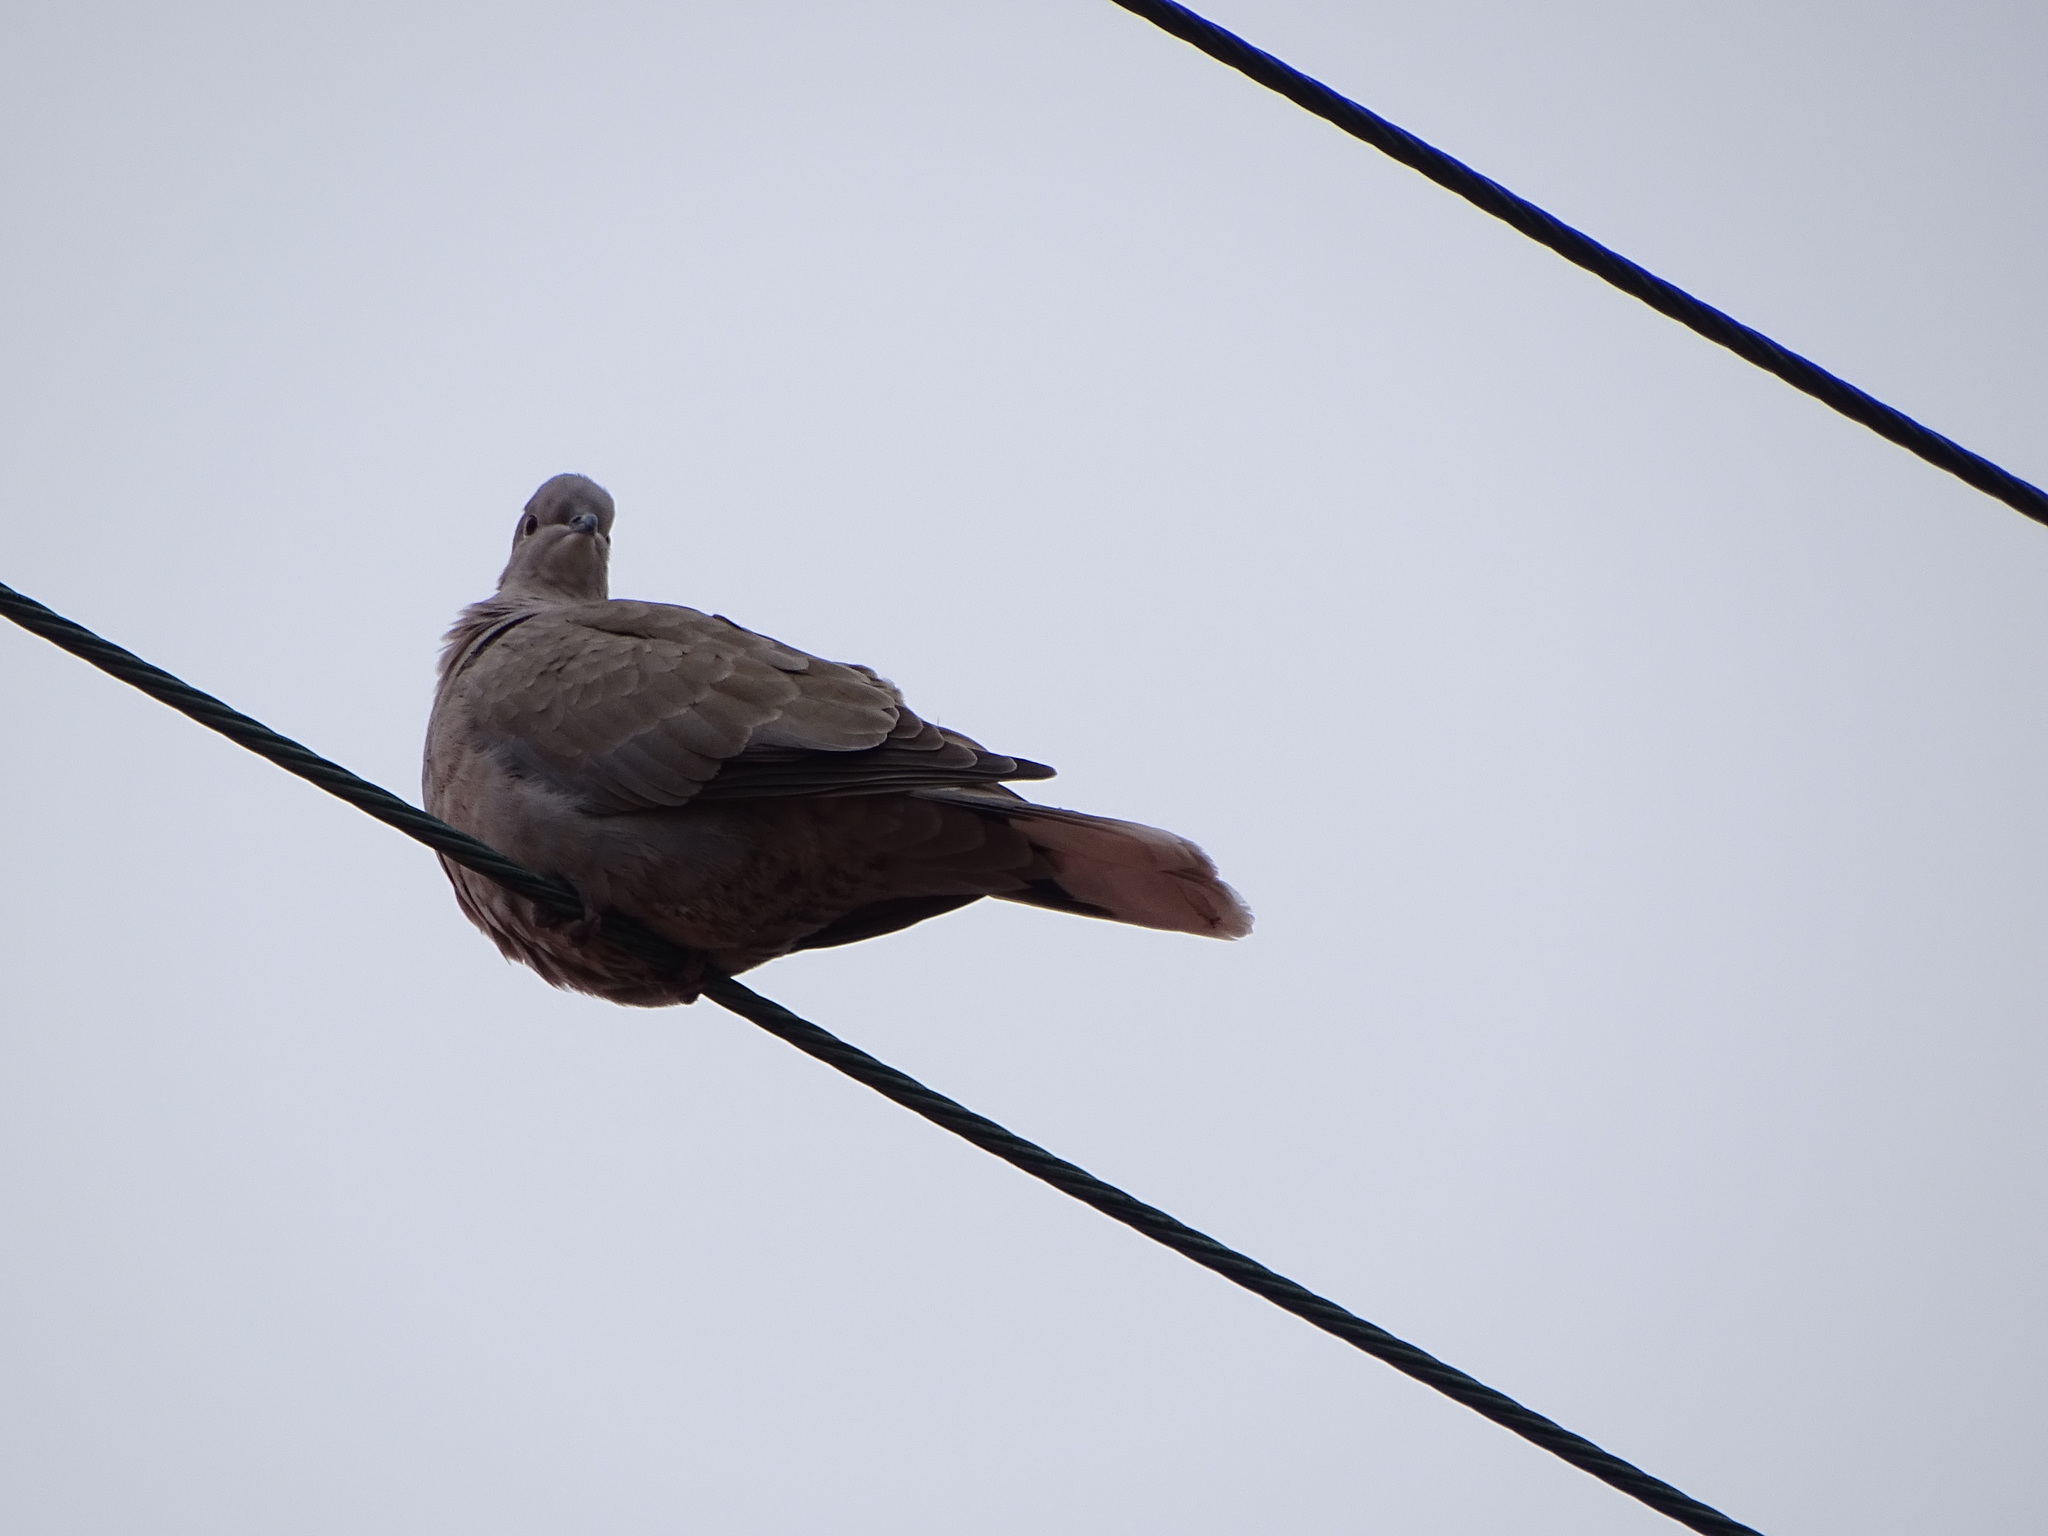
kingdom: Animalia
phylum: Chordata
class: Aves
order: Columbiformes
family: Columbidae
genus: Streptopelia
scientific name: Streptopelia decaocto
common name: Eurasian collared dove
